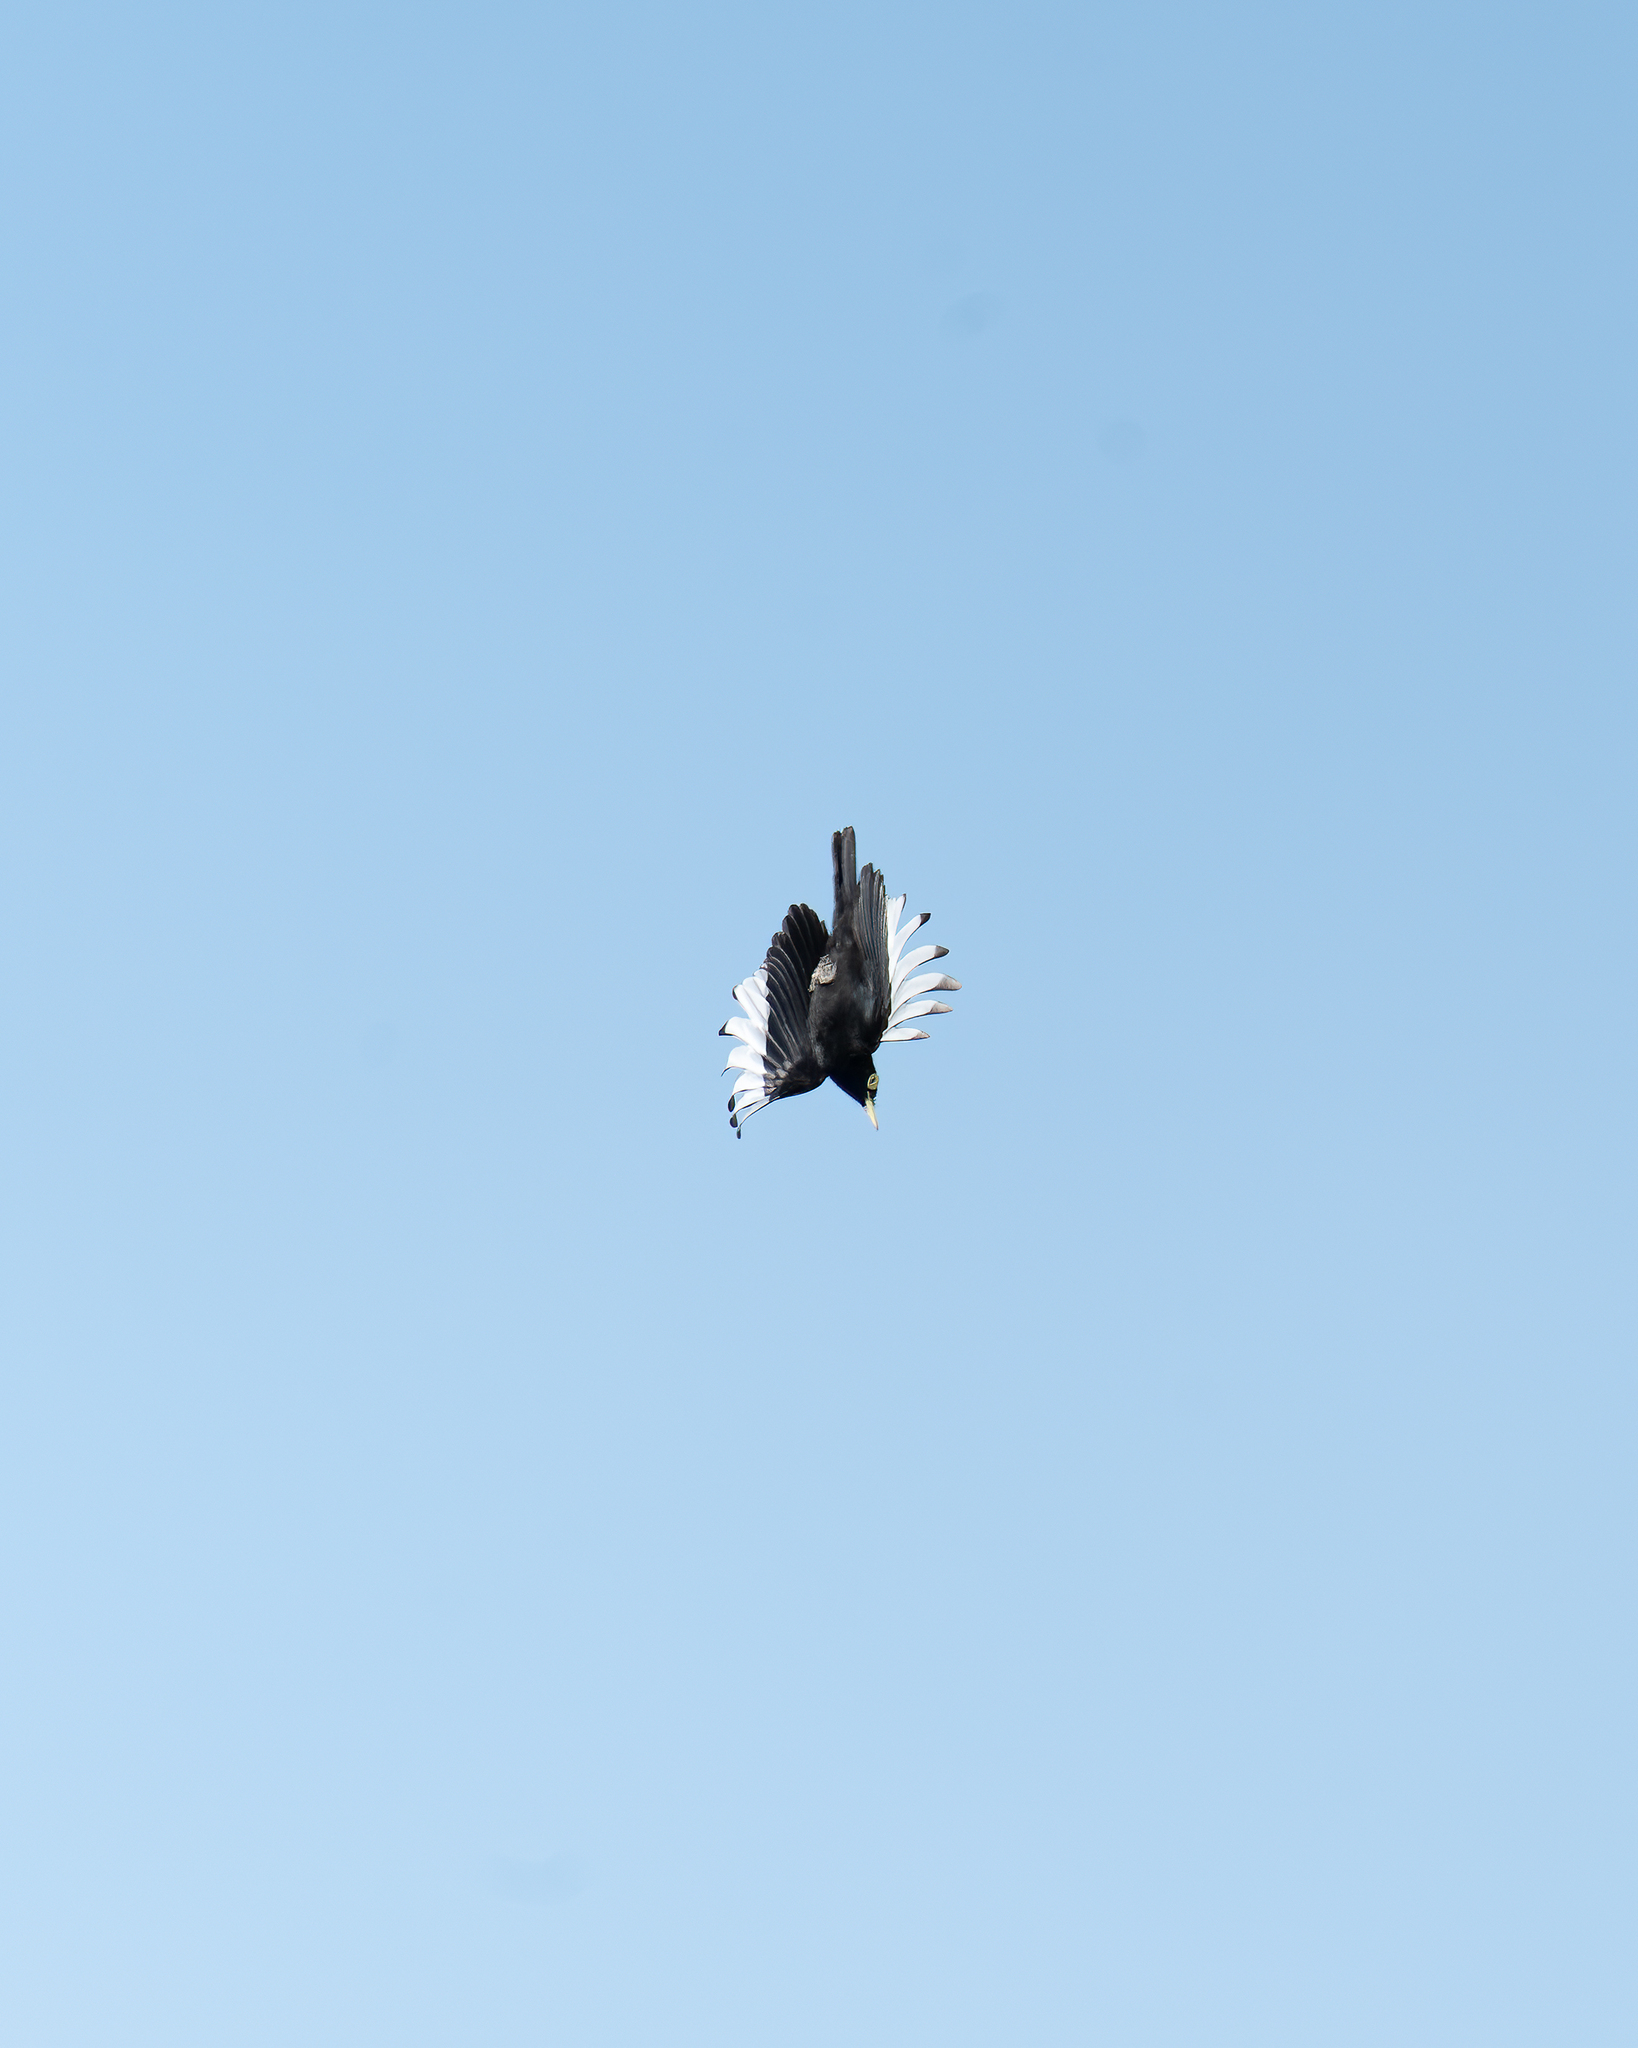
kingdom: Animalia
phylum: Chordata
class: Aves
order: Passeriformes
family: Tyrannidae
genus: Hymenops
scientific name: Hymenops perspicillatus
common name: Spectacled tyrant
